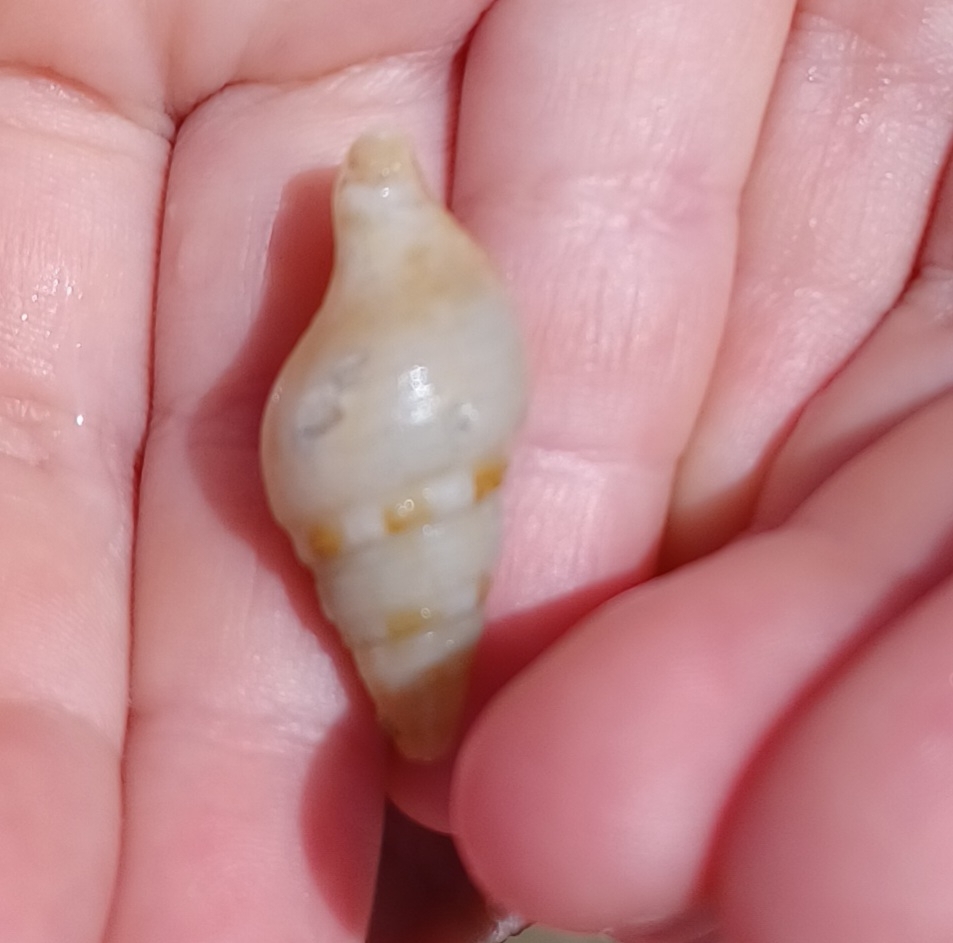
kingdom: Animalia
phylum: Mollusca
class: Gastropoda
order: Neogastropoda
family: Horaiclavidae
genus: Epideira
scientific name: Epideira philipineri
